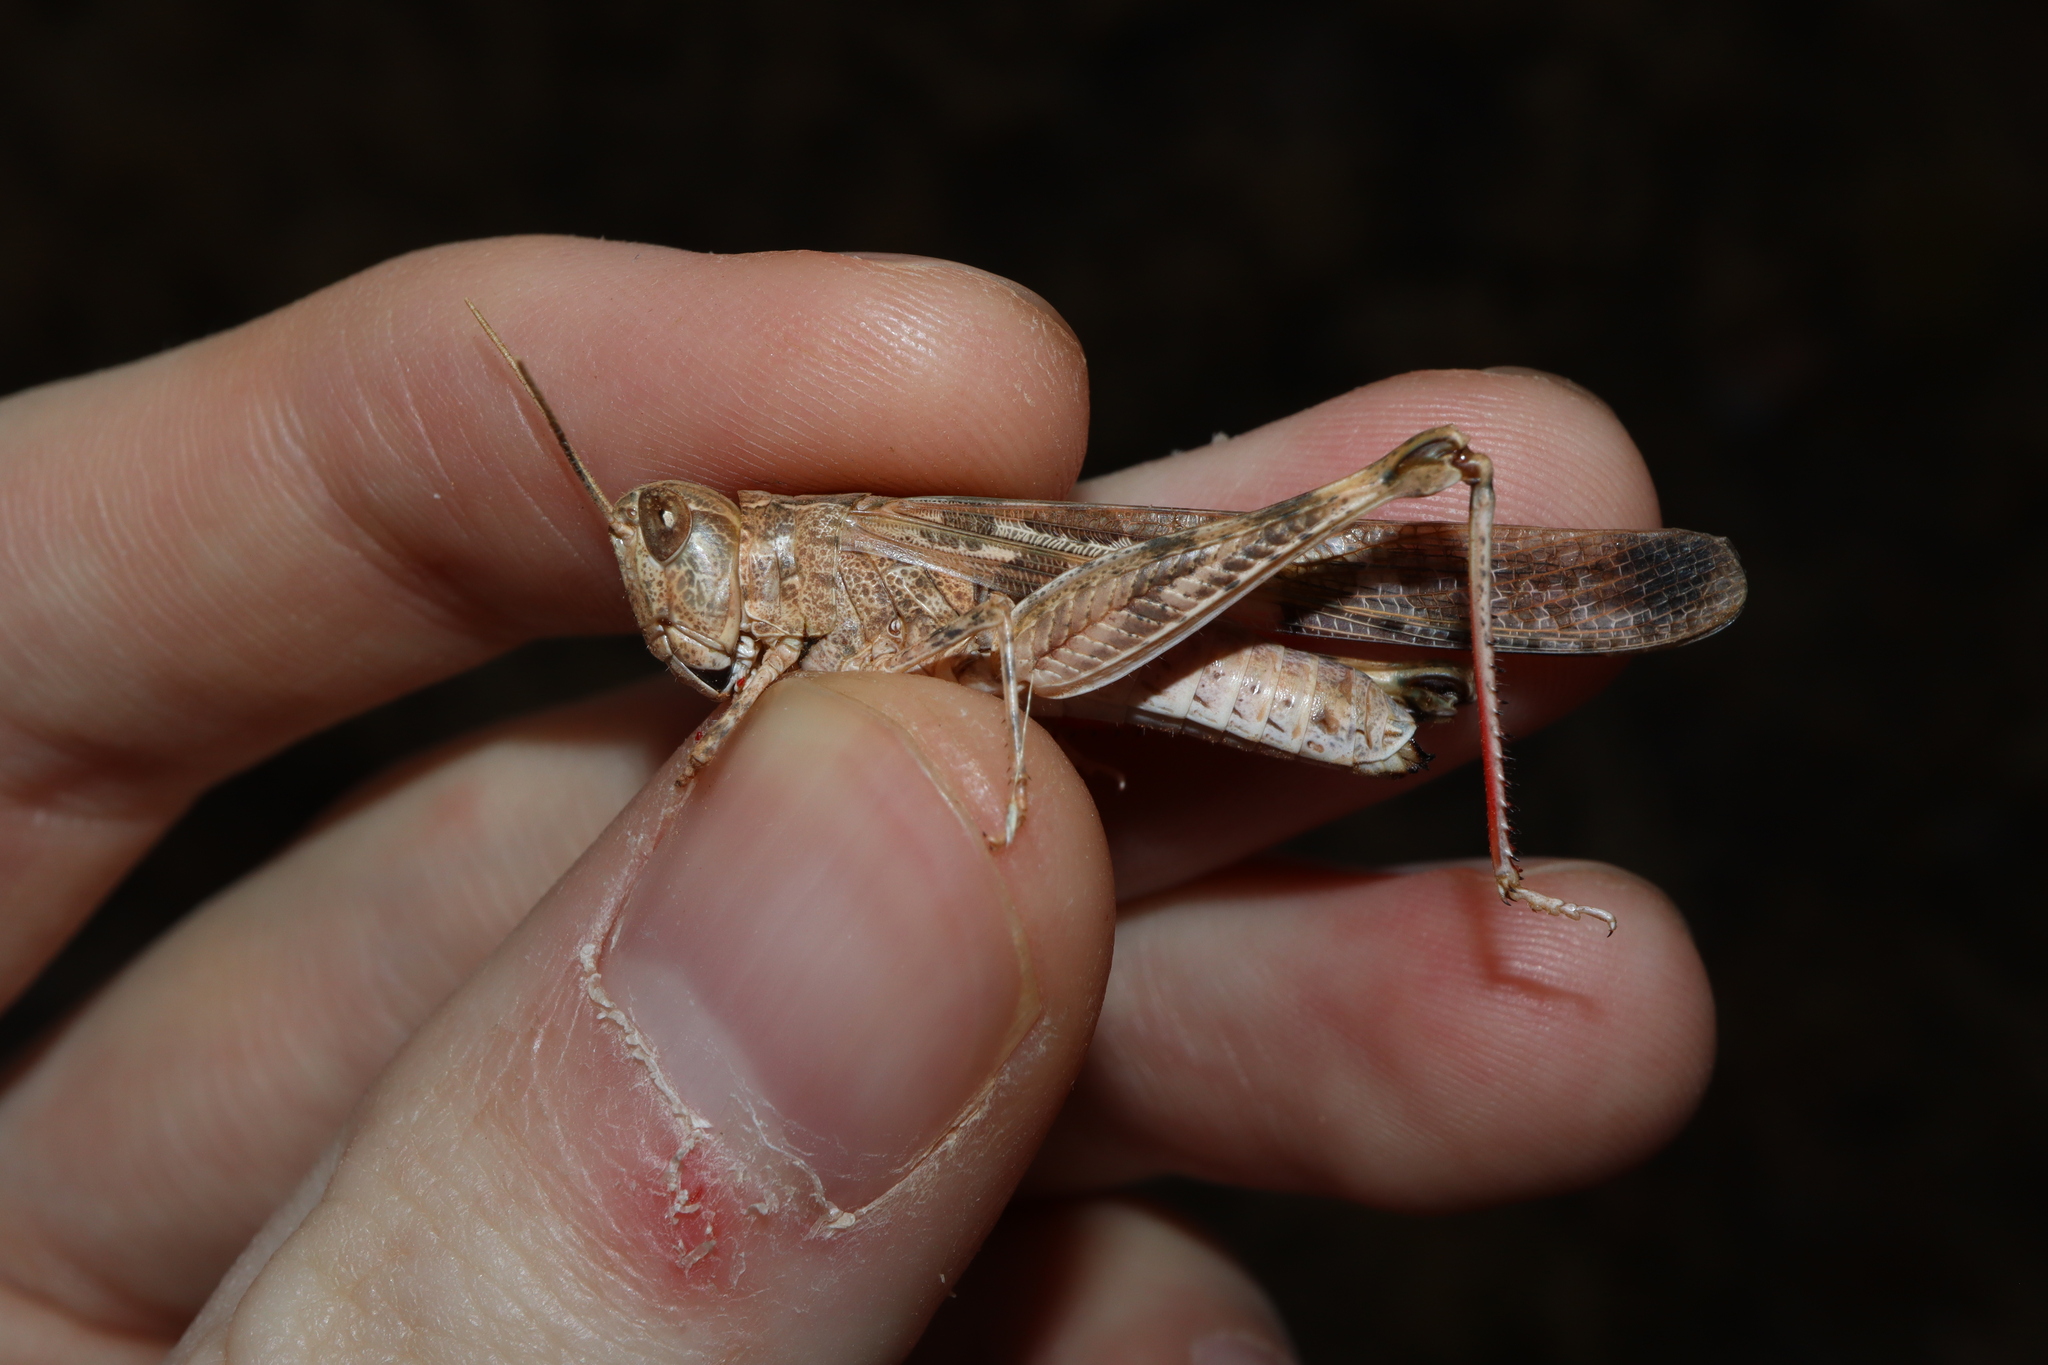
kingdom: Animalia
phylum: Arthropoda
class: Insecta
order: Orthoptera
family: Acrididae
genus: Chortoicetes
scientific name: Chortoicetes terminifera
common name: Australian plague locust
